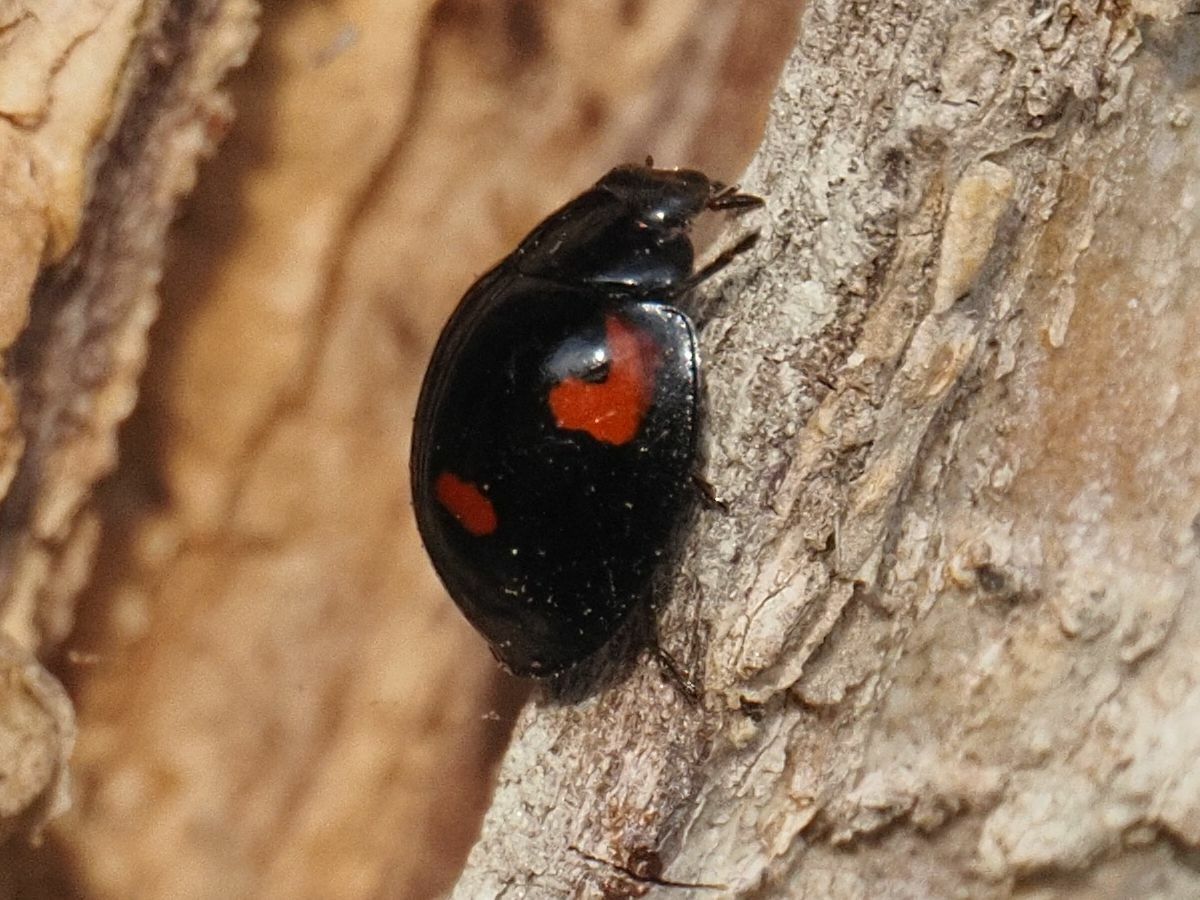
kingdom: Animalia
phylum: Arthropoda
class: Insecta
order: Coleoptera
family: Coccinellidae
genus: Brumus
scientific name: Brumus quadripustulatus
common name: Ladybird beetle
